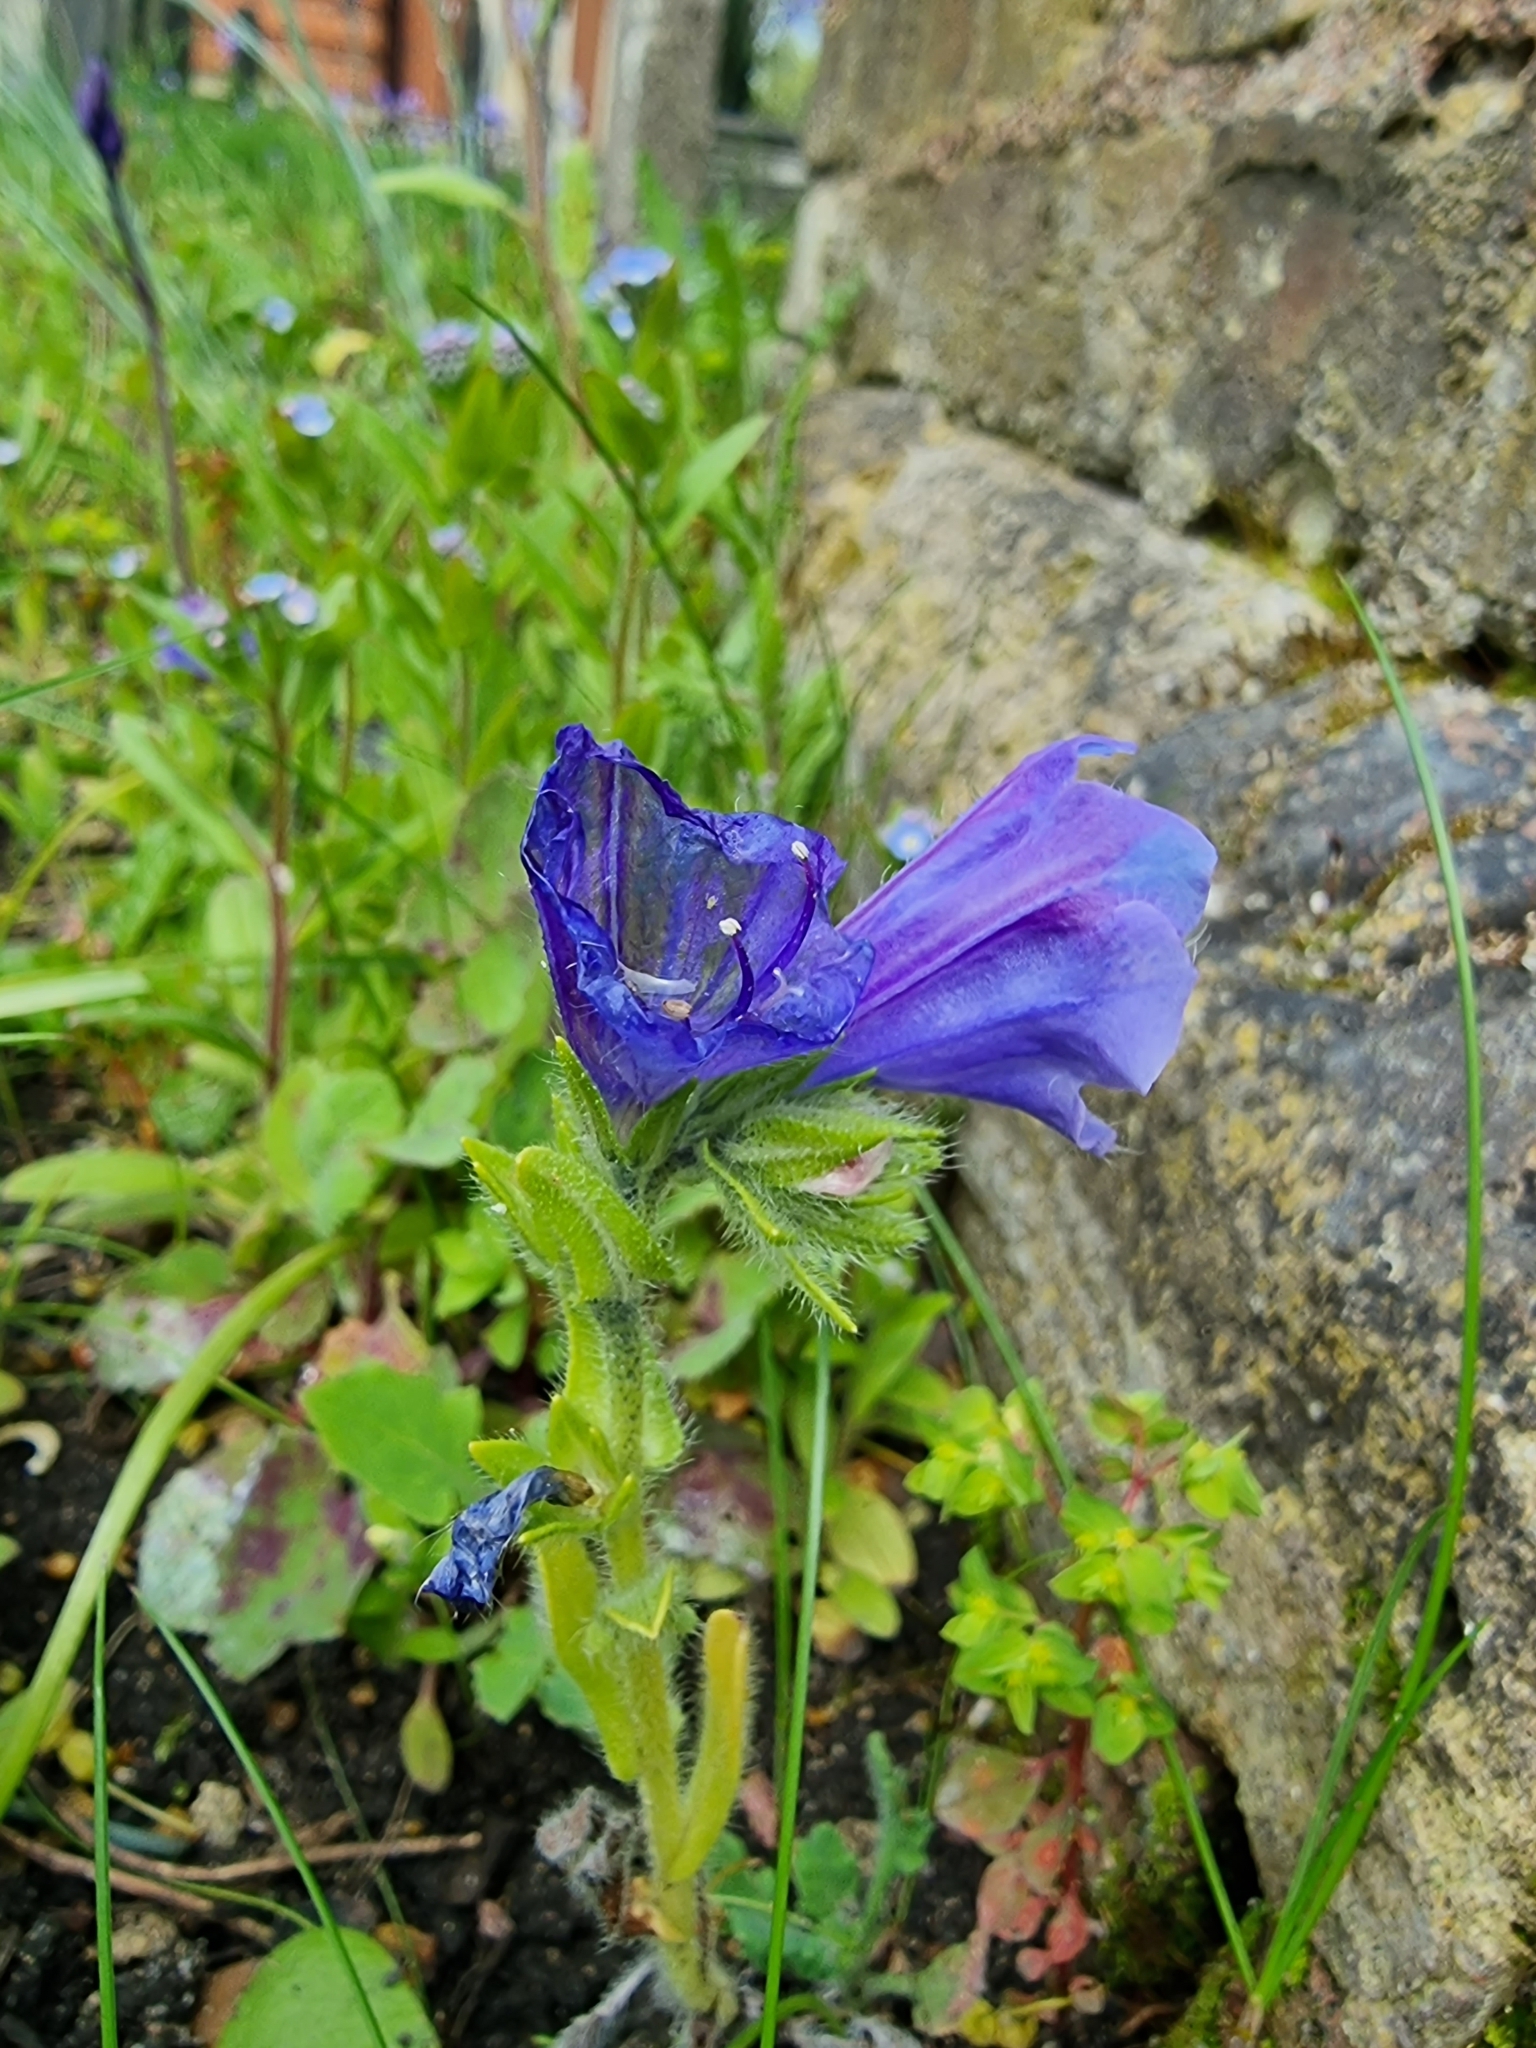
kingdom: Plantae
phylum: Tracheophyta
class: Magnoliopsida
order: Boraginales
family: Boraginaceae
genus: Echium
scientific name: Echium plantagineum
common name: Purple viper's-bugloss
